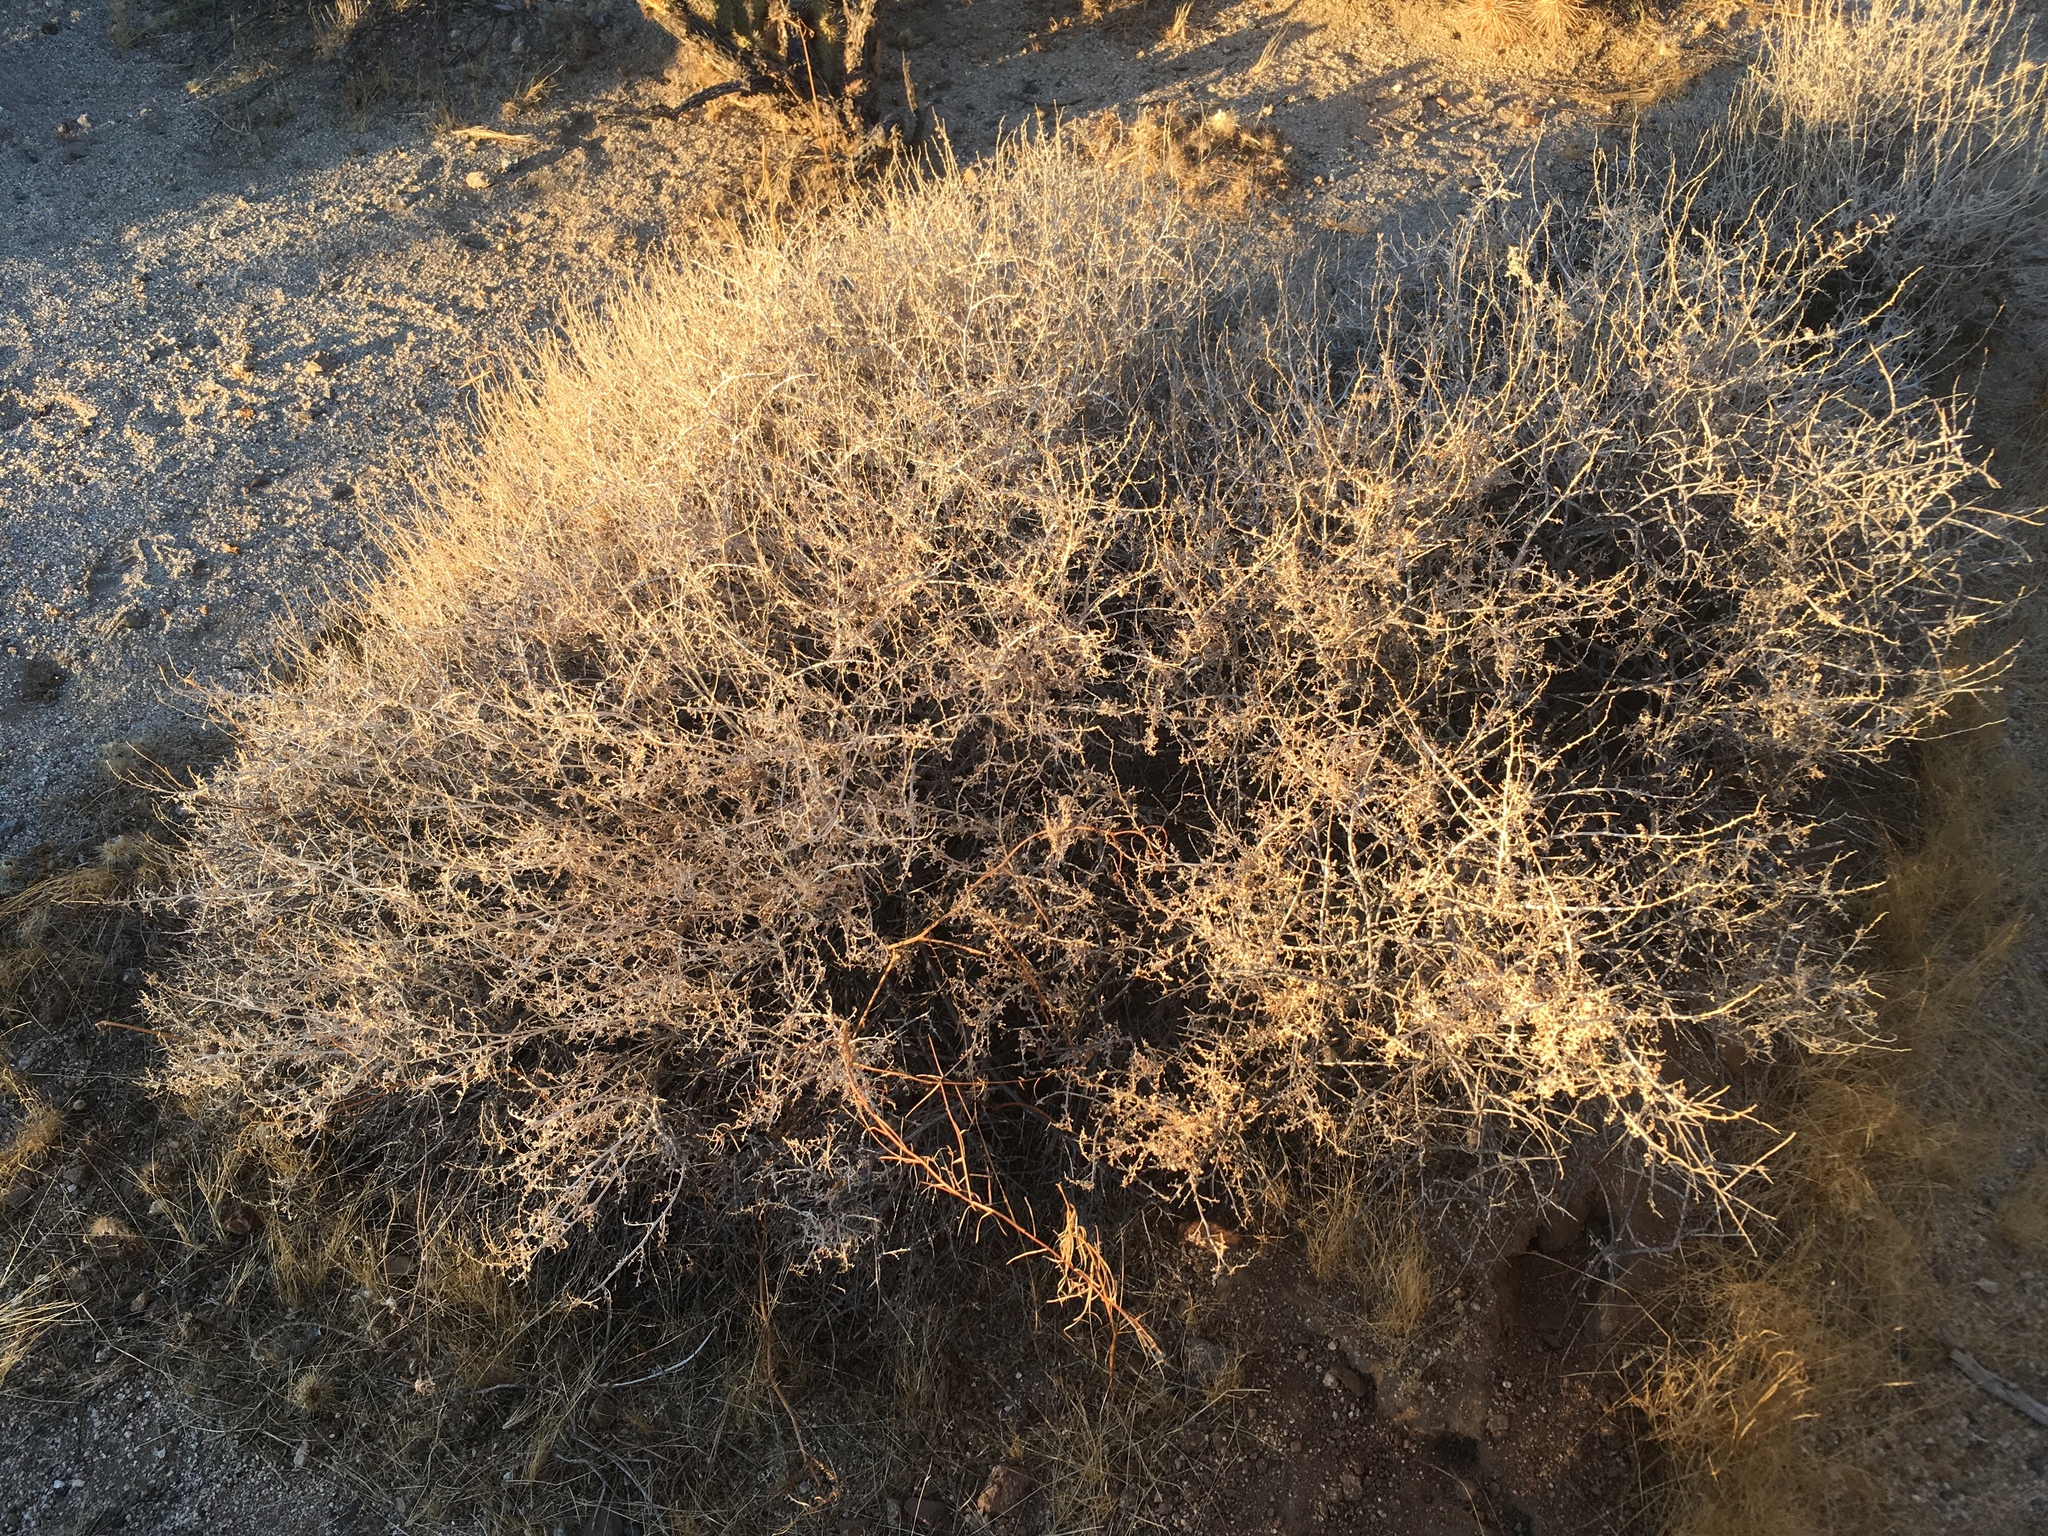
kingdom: Plantae
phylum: Tracheophyta
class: Magnoliopsida
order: Asterales
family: Asteraceae
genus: Ambrosia
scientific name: Ambrosia dumosa
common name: Bur-sage
